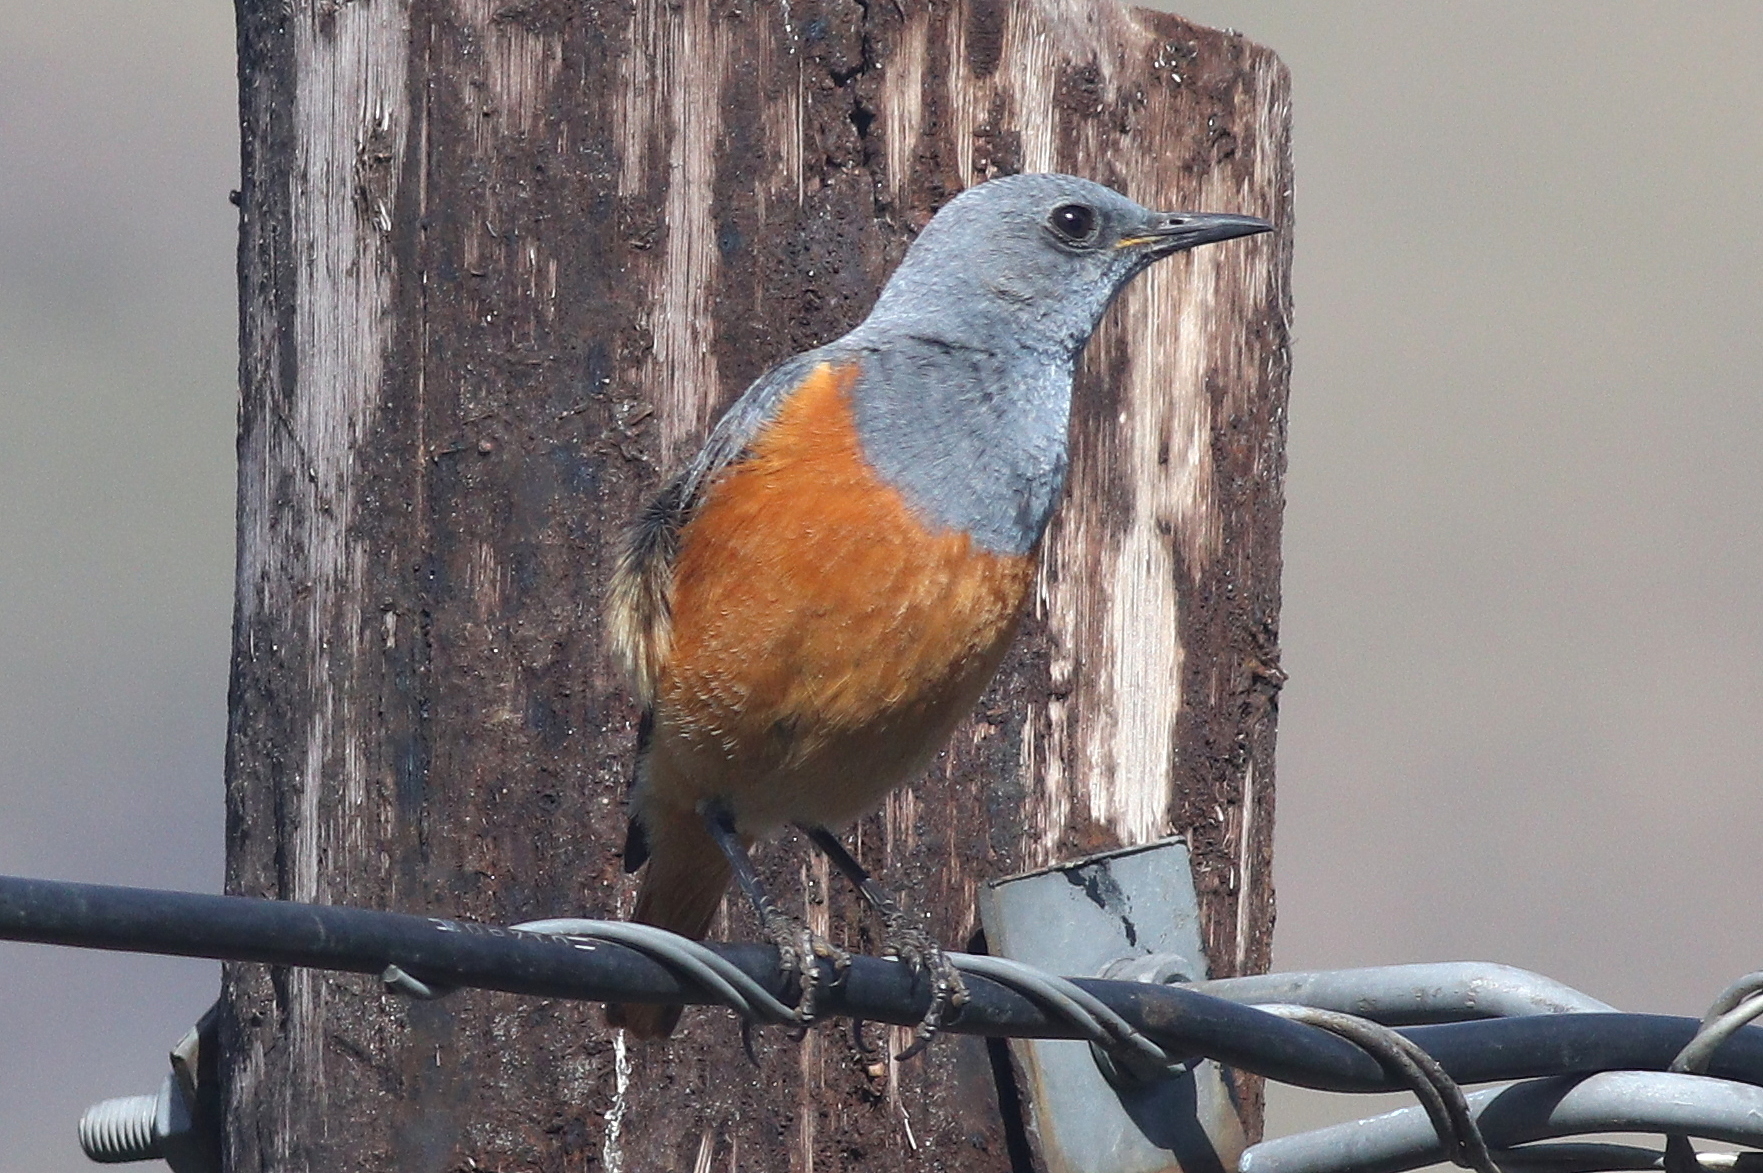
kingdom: Animalia
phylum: Chordata
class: Aves
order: Passeriformes
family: Muscicapidae
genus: Monticola
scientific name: Monticola explorator
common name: Sentinel rock thrush
